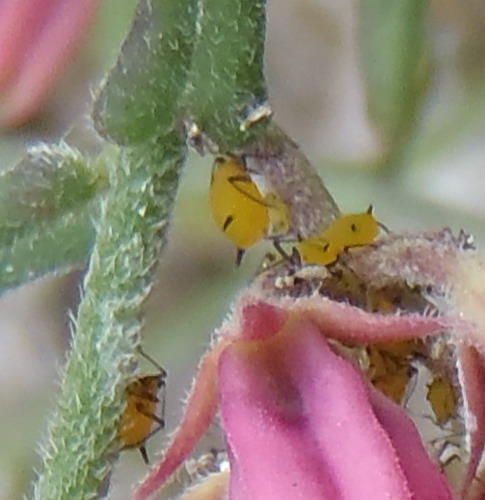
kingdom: Animalia
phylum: Arthropoda
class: Insecta
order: Hemiptera
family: Aphididae
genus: Aphis
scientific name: Aphis nerii
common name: Oleander aphid
